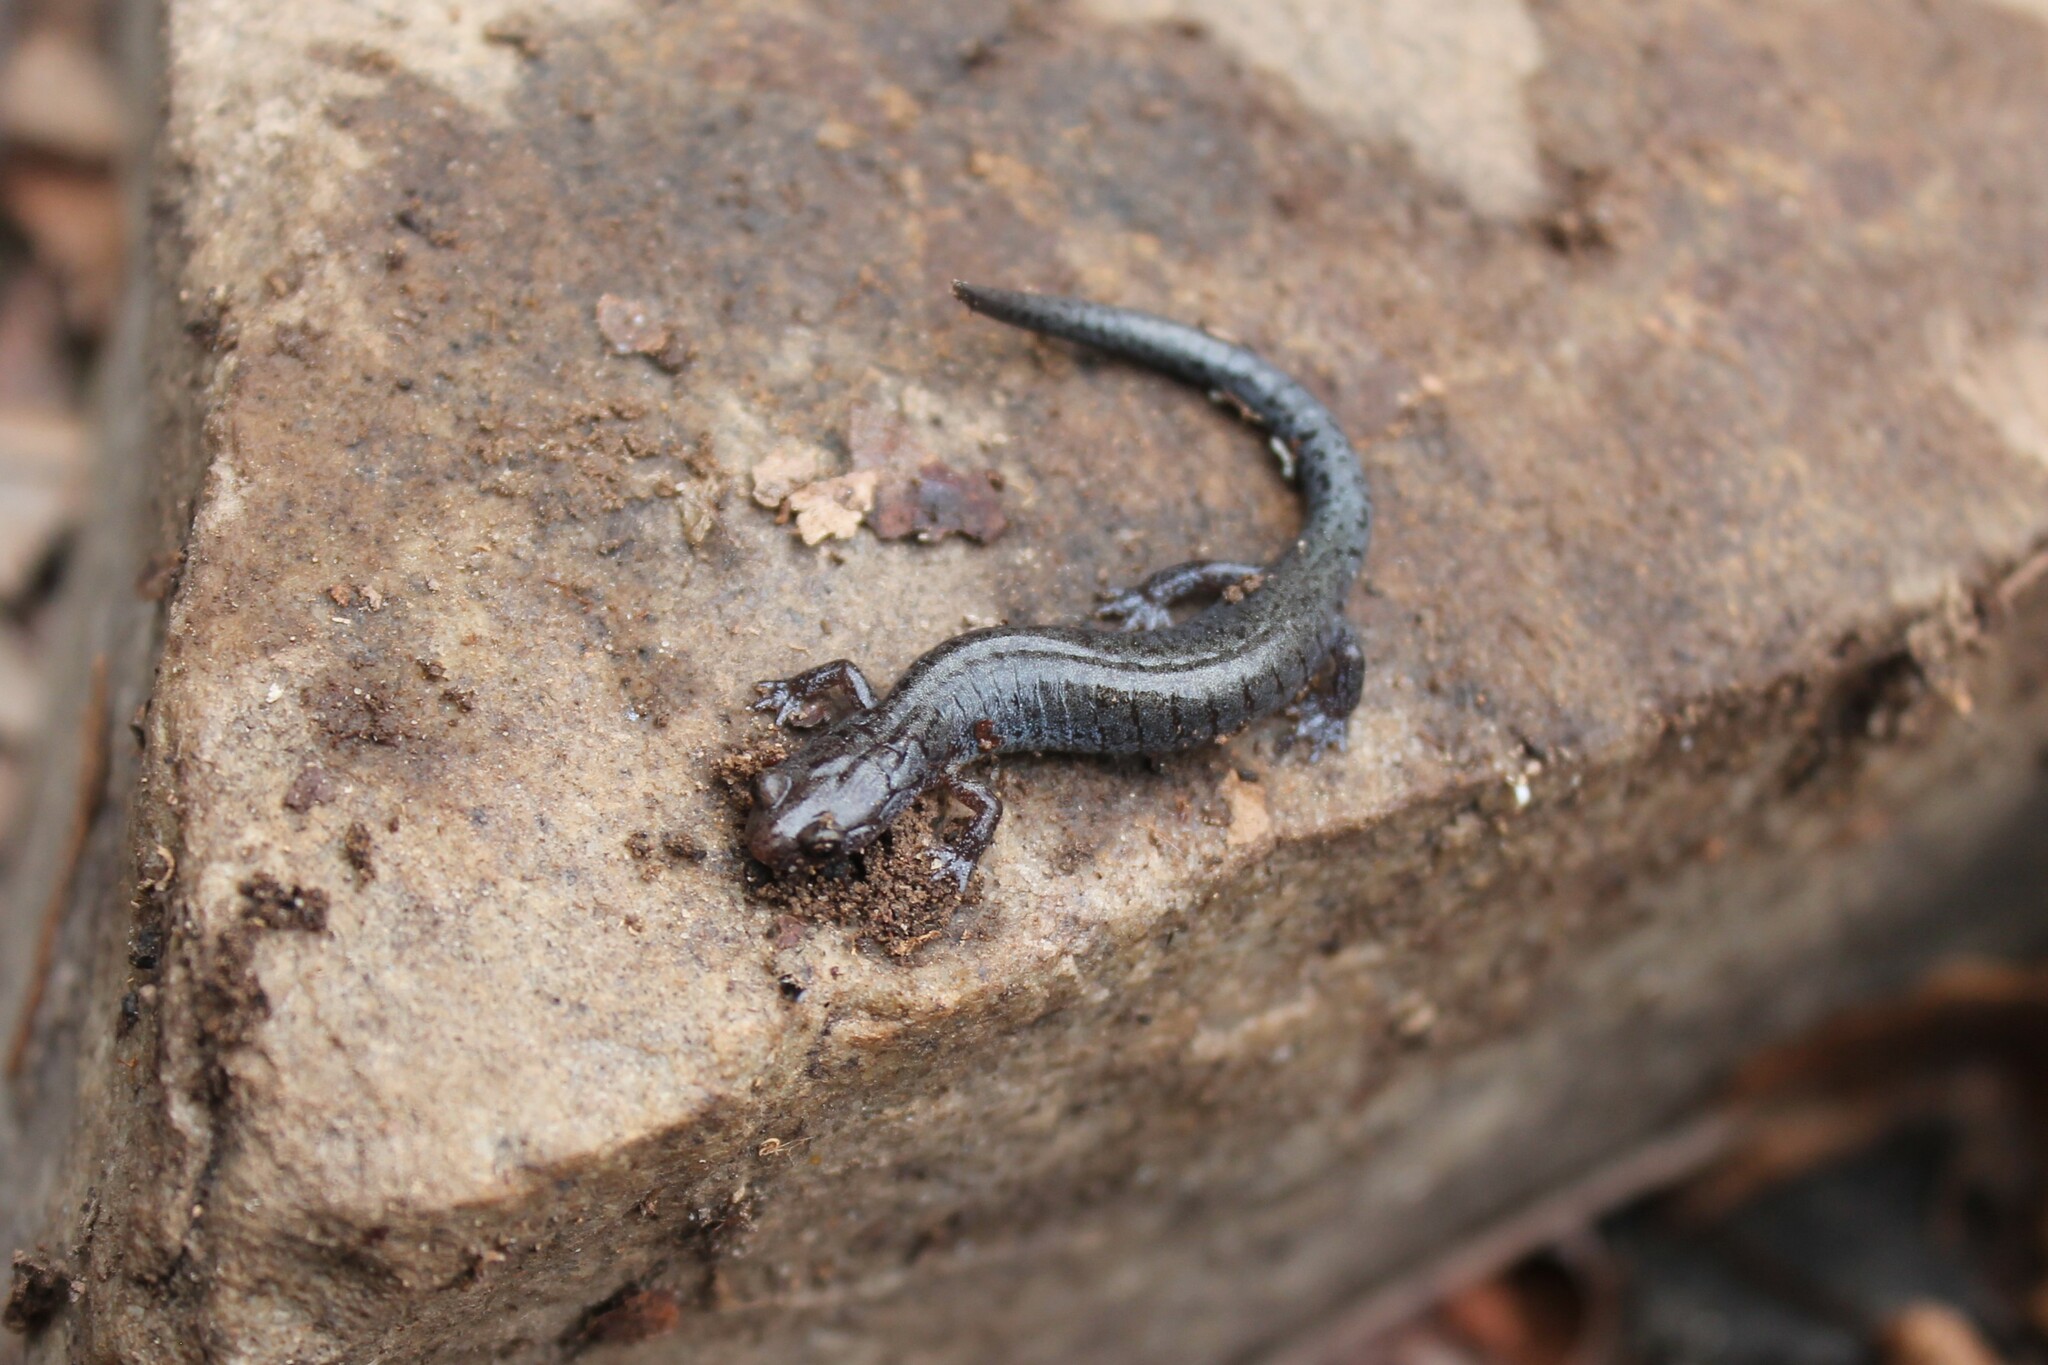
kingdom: Animalia
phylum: Chordata
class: Amphibia
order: Caudata
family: Plethodontidae
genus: Plethodon
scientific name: Plethodon ventralis
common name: Southern zigzag salamander
